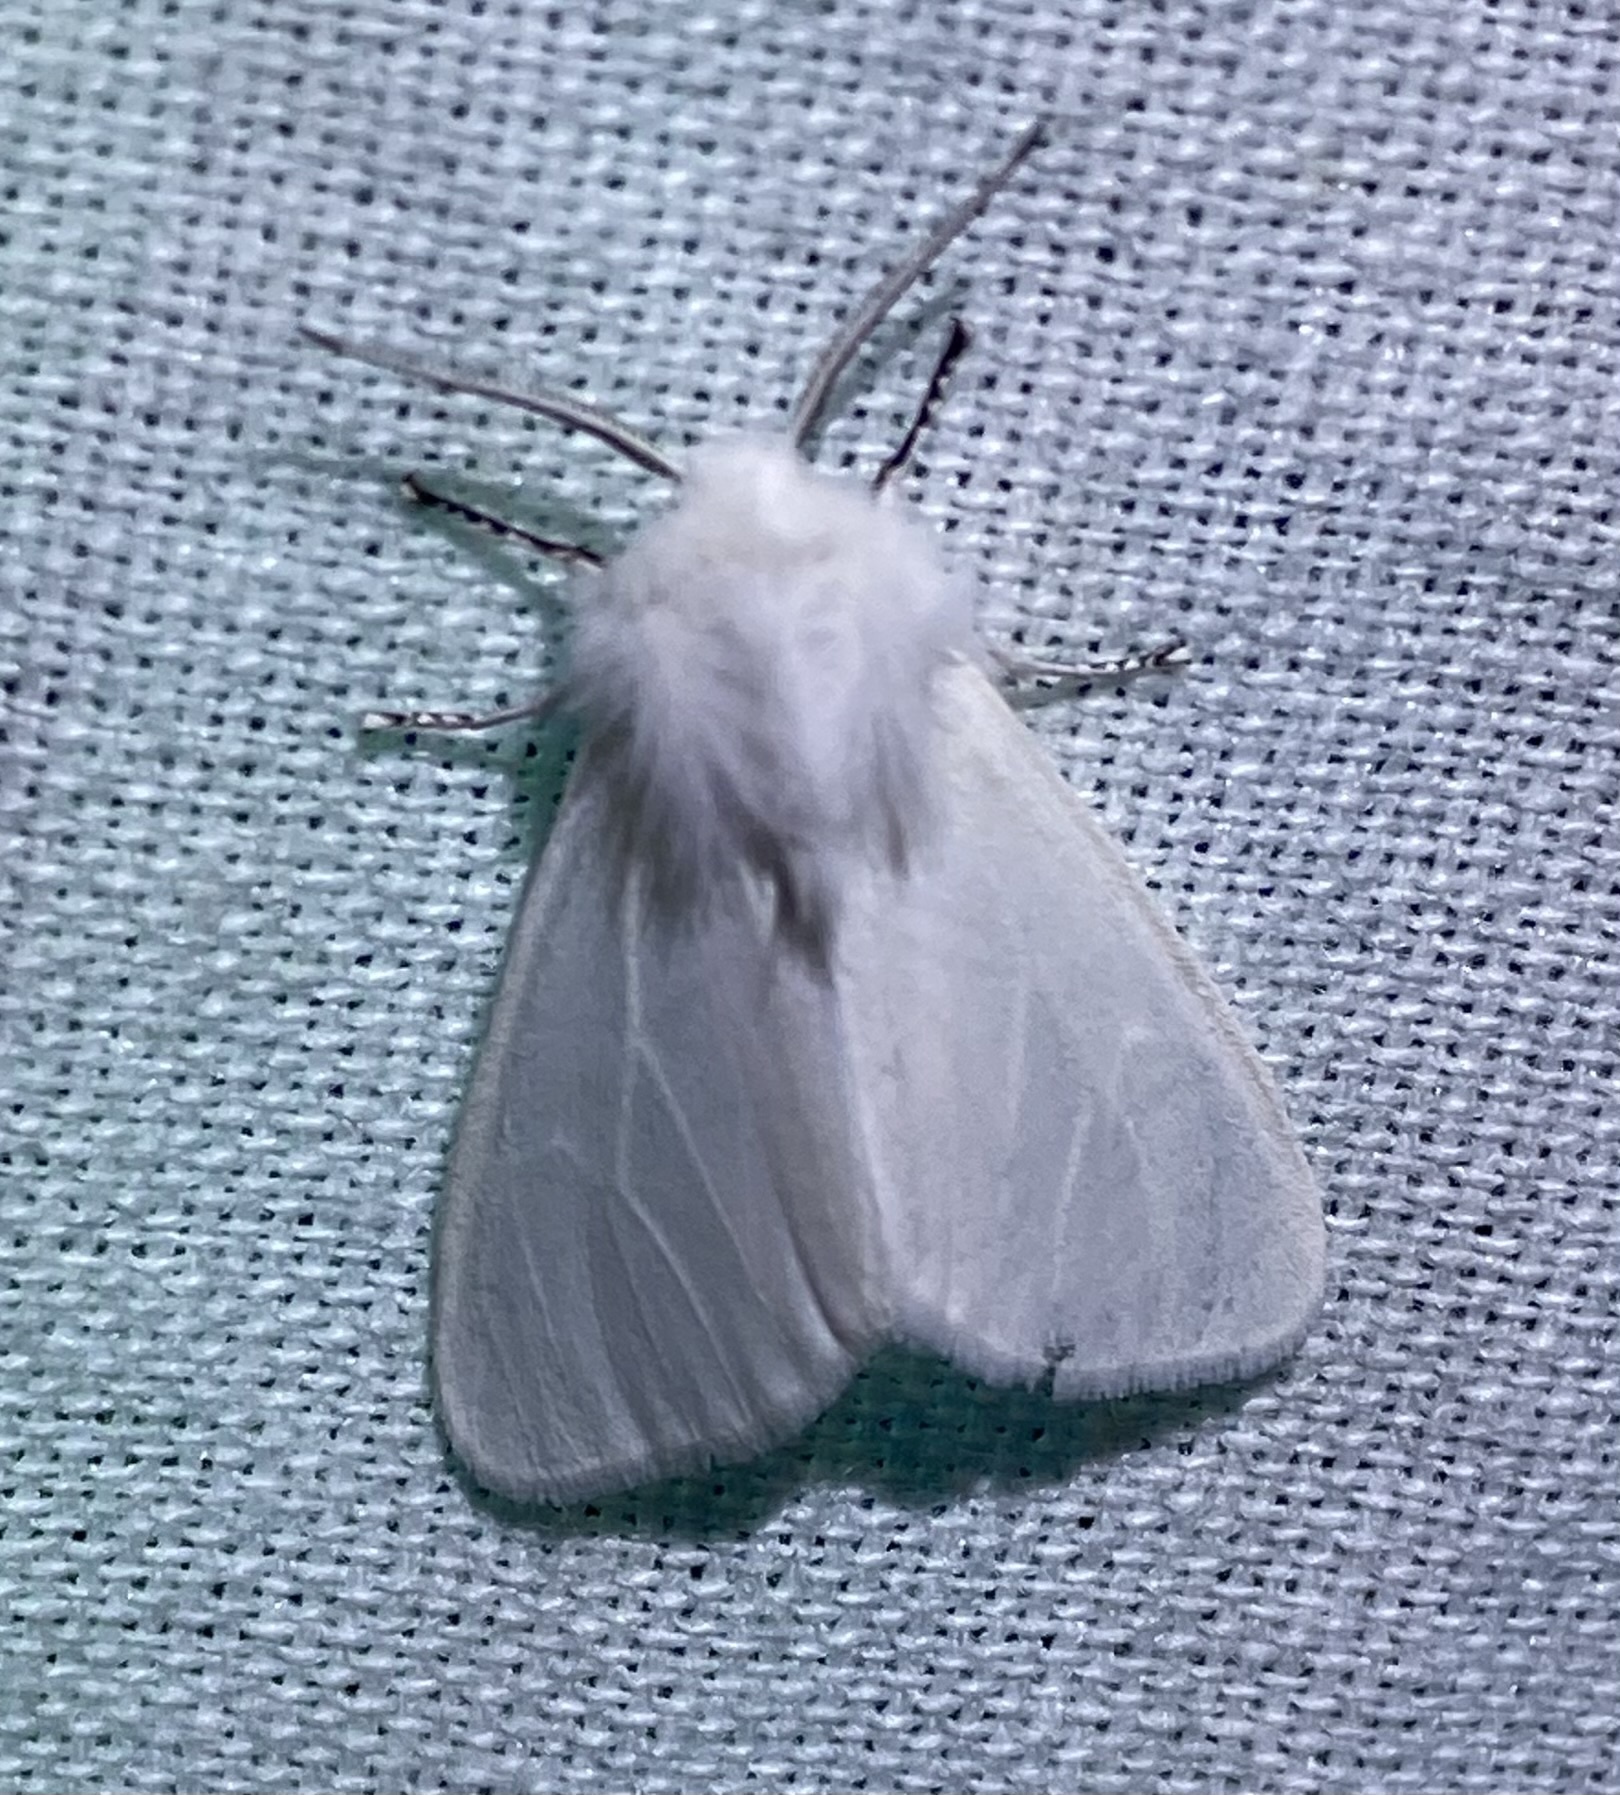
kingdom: Animalia
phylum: Arthropoda
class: Insecta
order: Lepidoptera
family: Erebidae
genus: Hyphantria
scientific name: Hyphantria cunea
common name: American white moth
